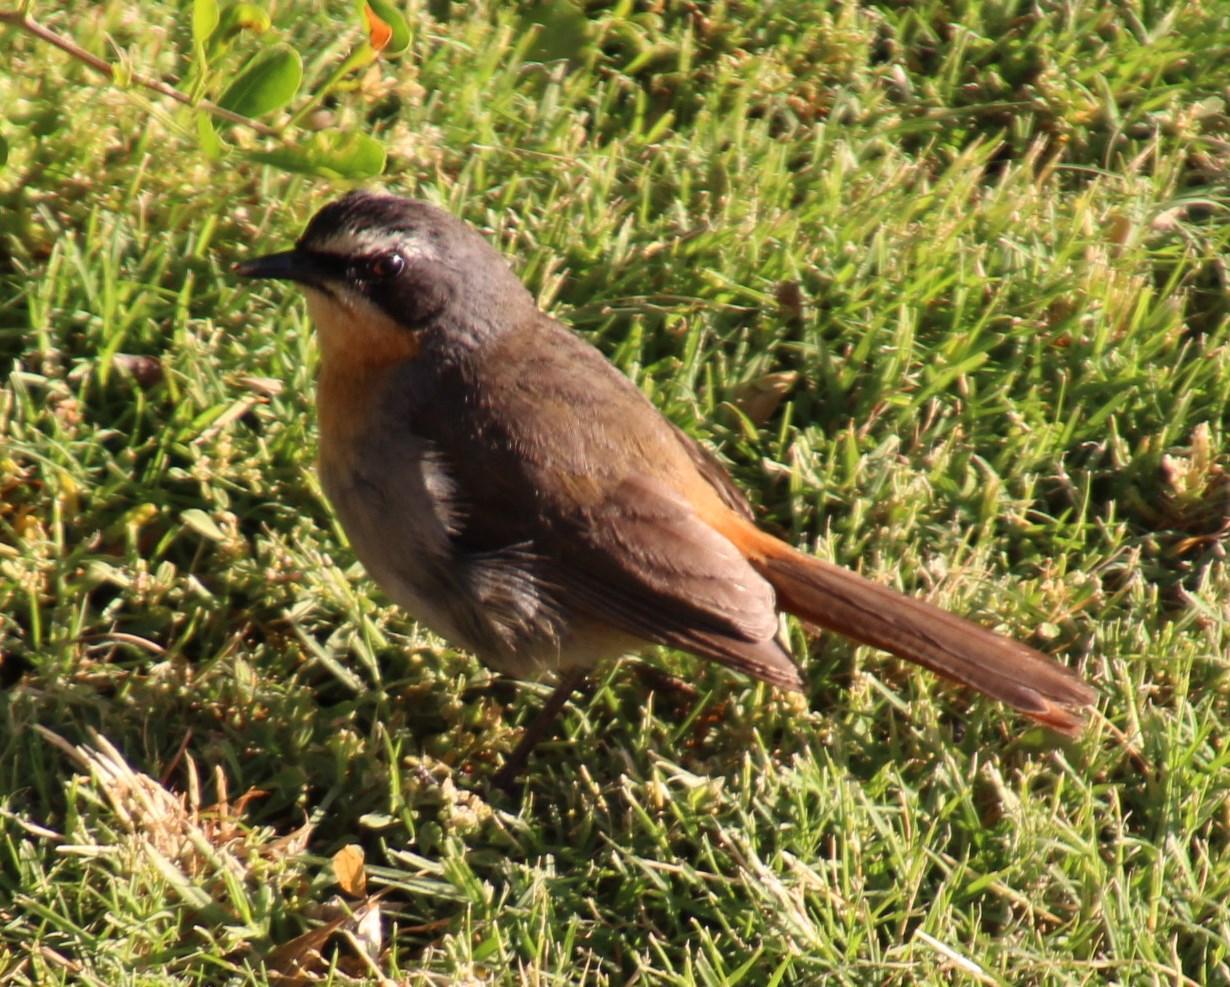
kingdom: Animalia
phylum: Chordata
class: Aves
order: Passeriformes
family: Muscicapidae
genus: Cossypha
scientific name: Cossypha caffra
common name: Cape robin-chat
